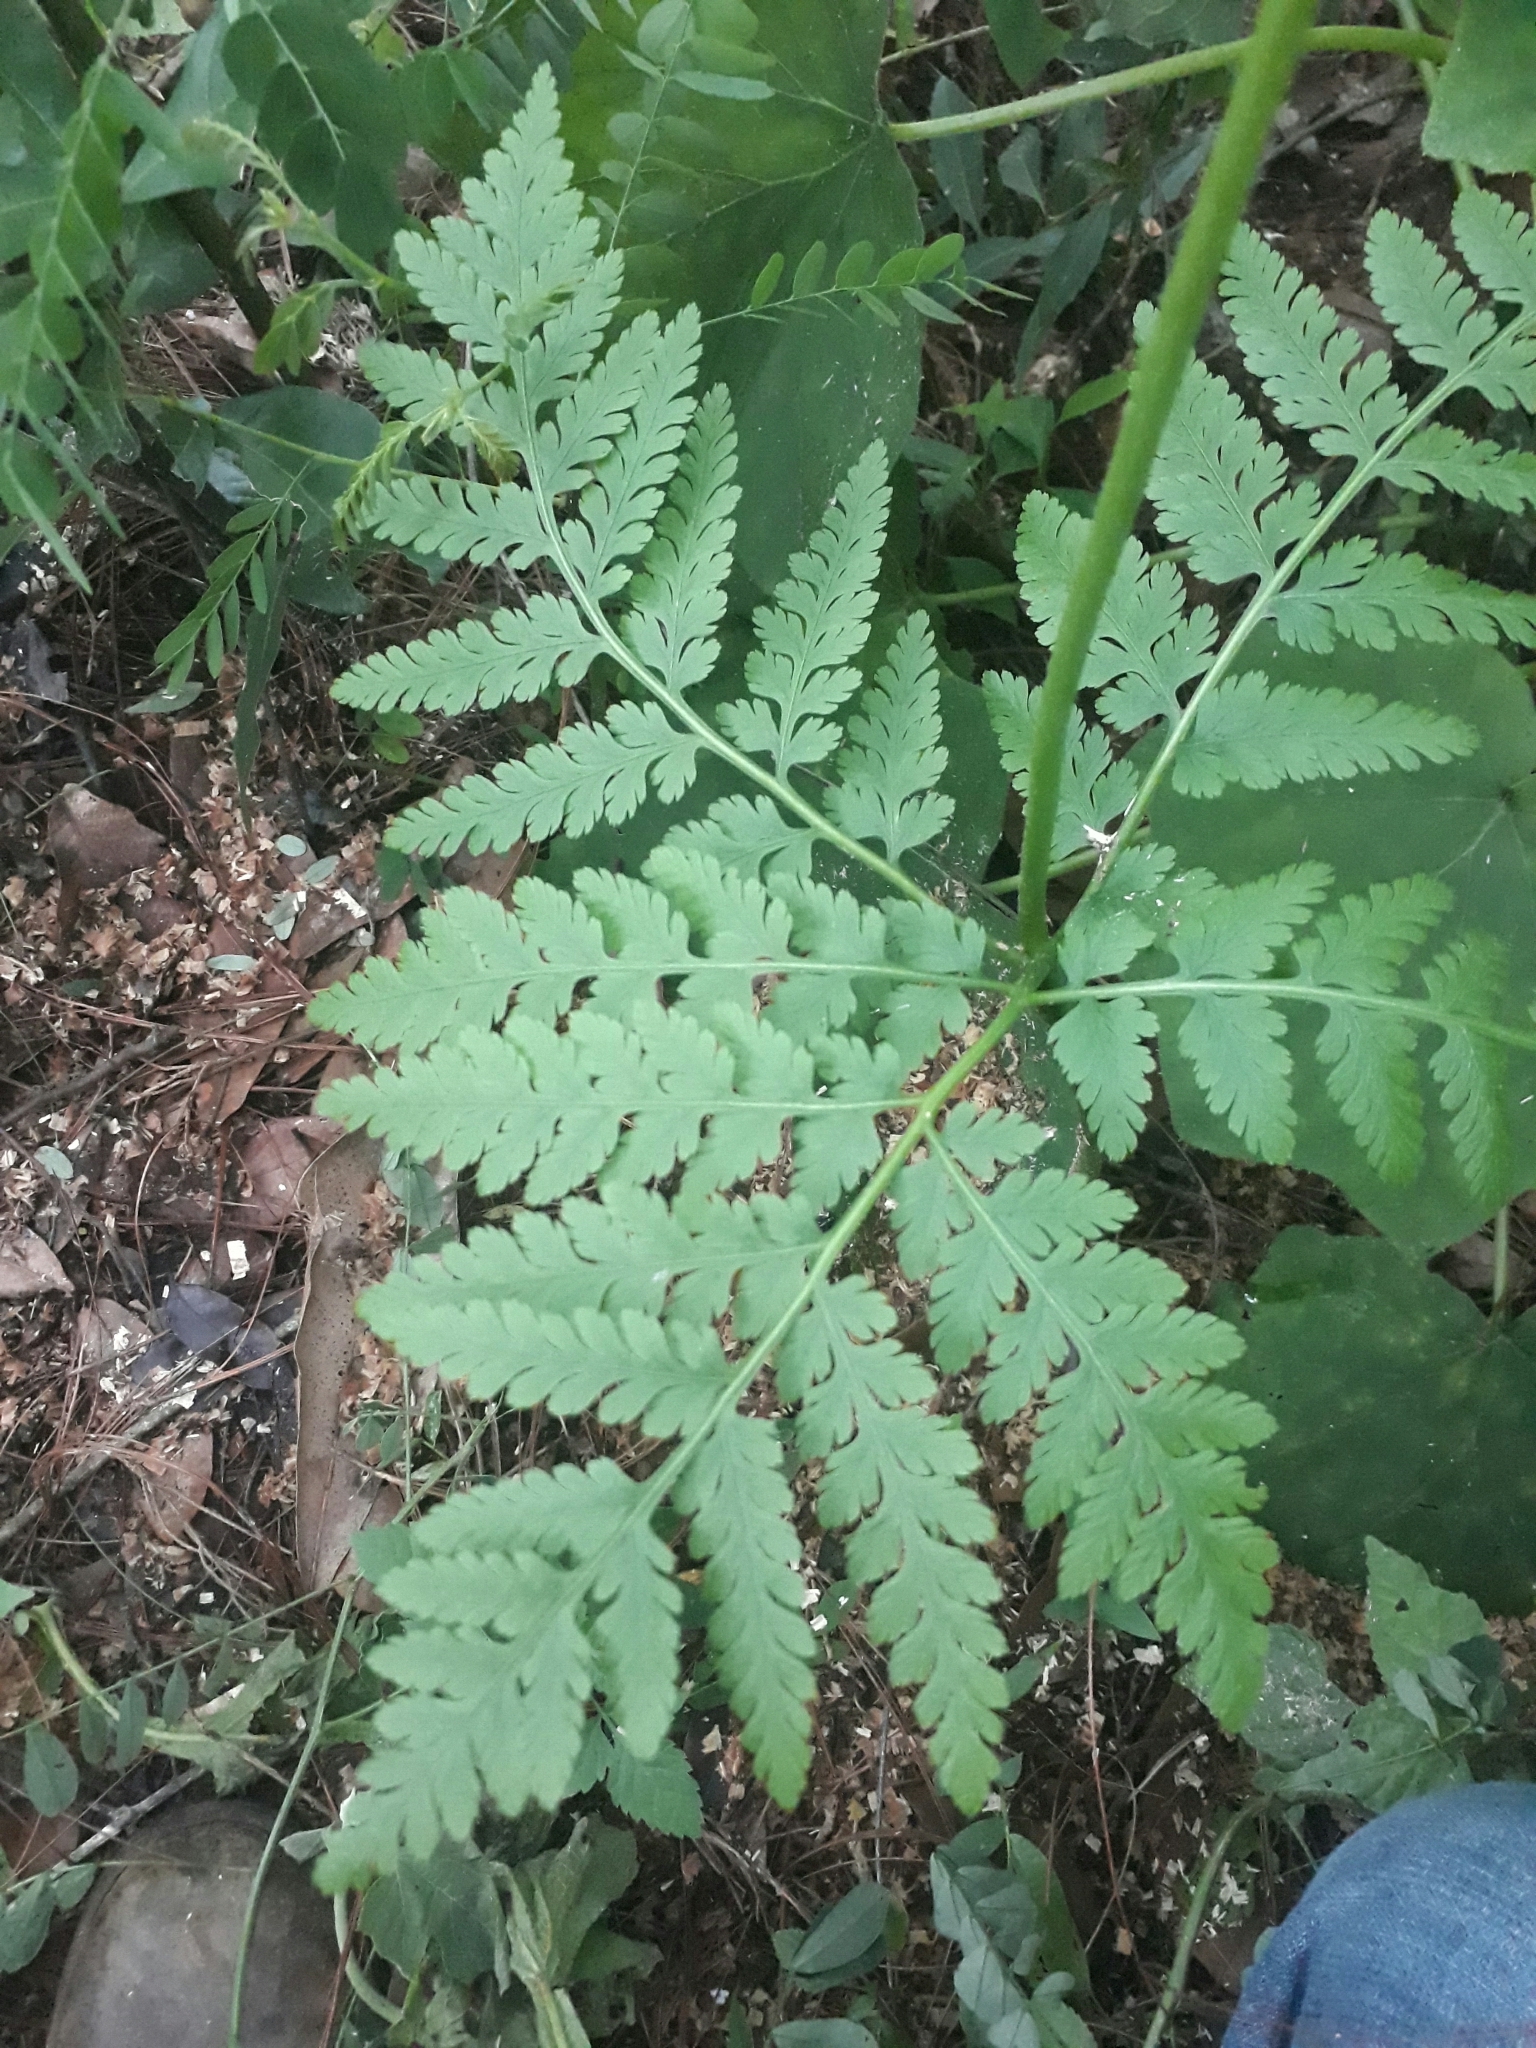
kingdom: Plantae
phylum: Tracheophyta
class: Polypodiopsida
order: Ophioglossales
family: Ophioglossaceae
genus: Botrypus
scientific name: Botrypus virginianus
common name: Common grapefern
